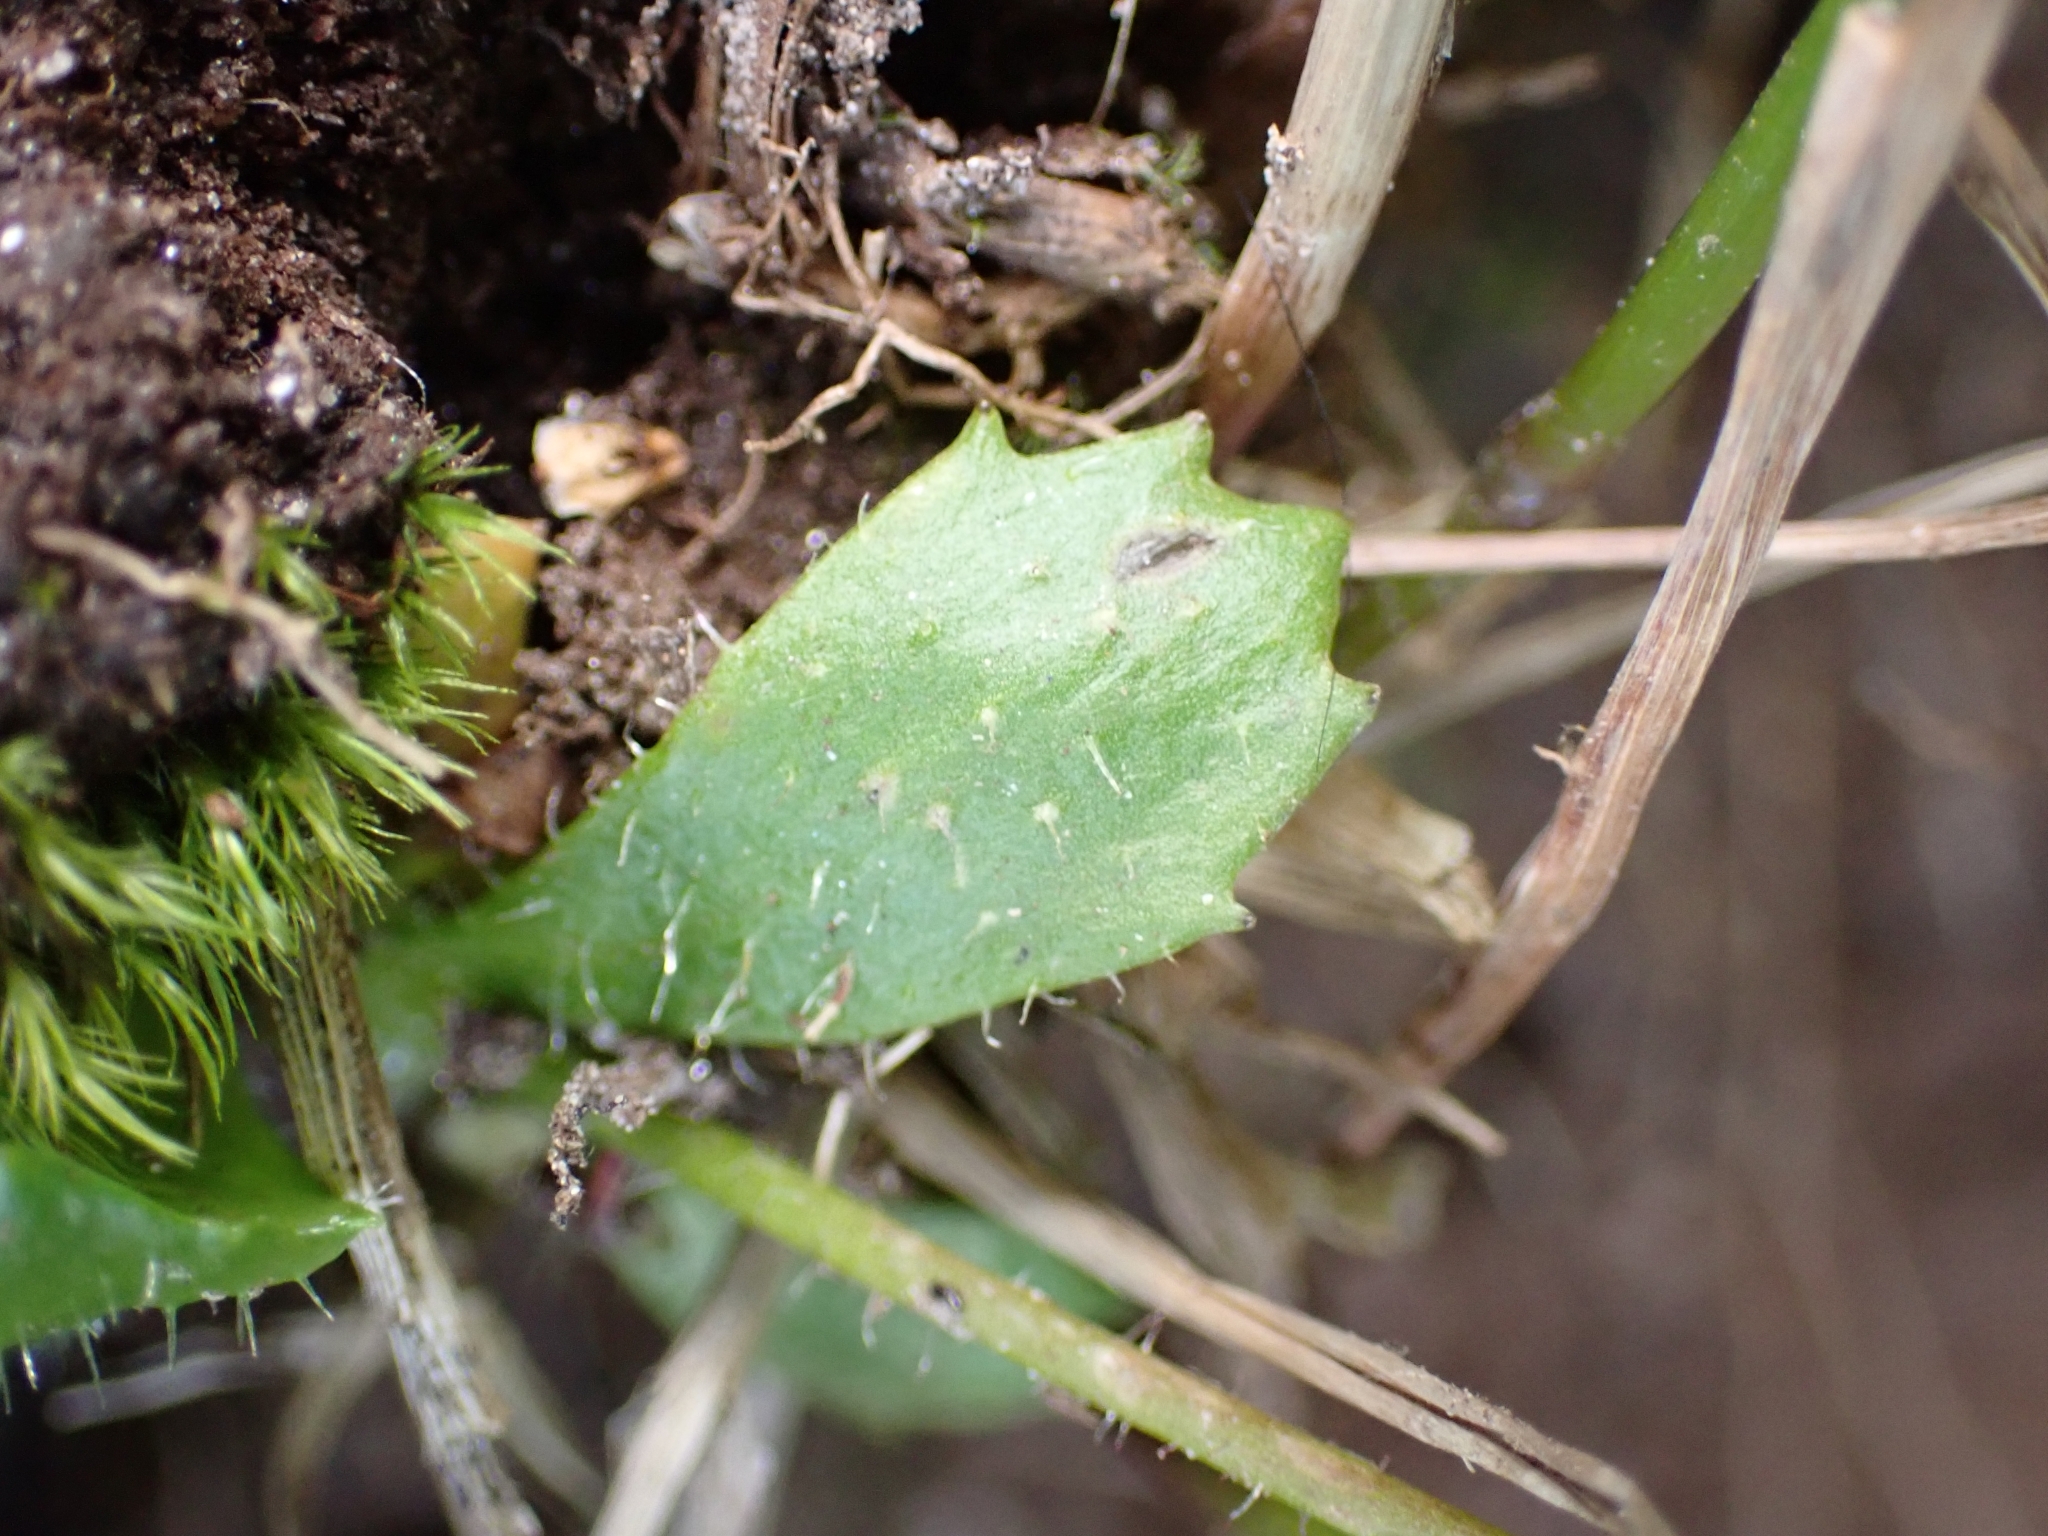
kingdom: Plantae
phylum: Tracheophyta
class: Magnoliopsida
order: Saxifragales
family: Saxifragaceae
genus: Micranthes
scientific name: Micranthes stellaris
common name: Starry saxifrage
